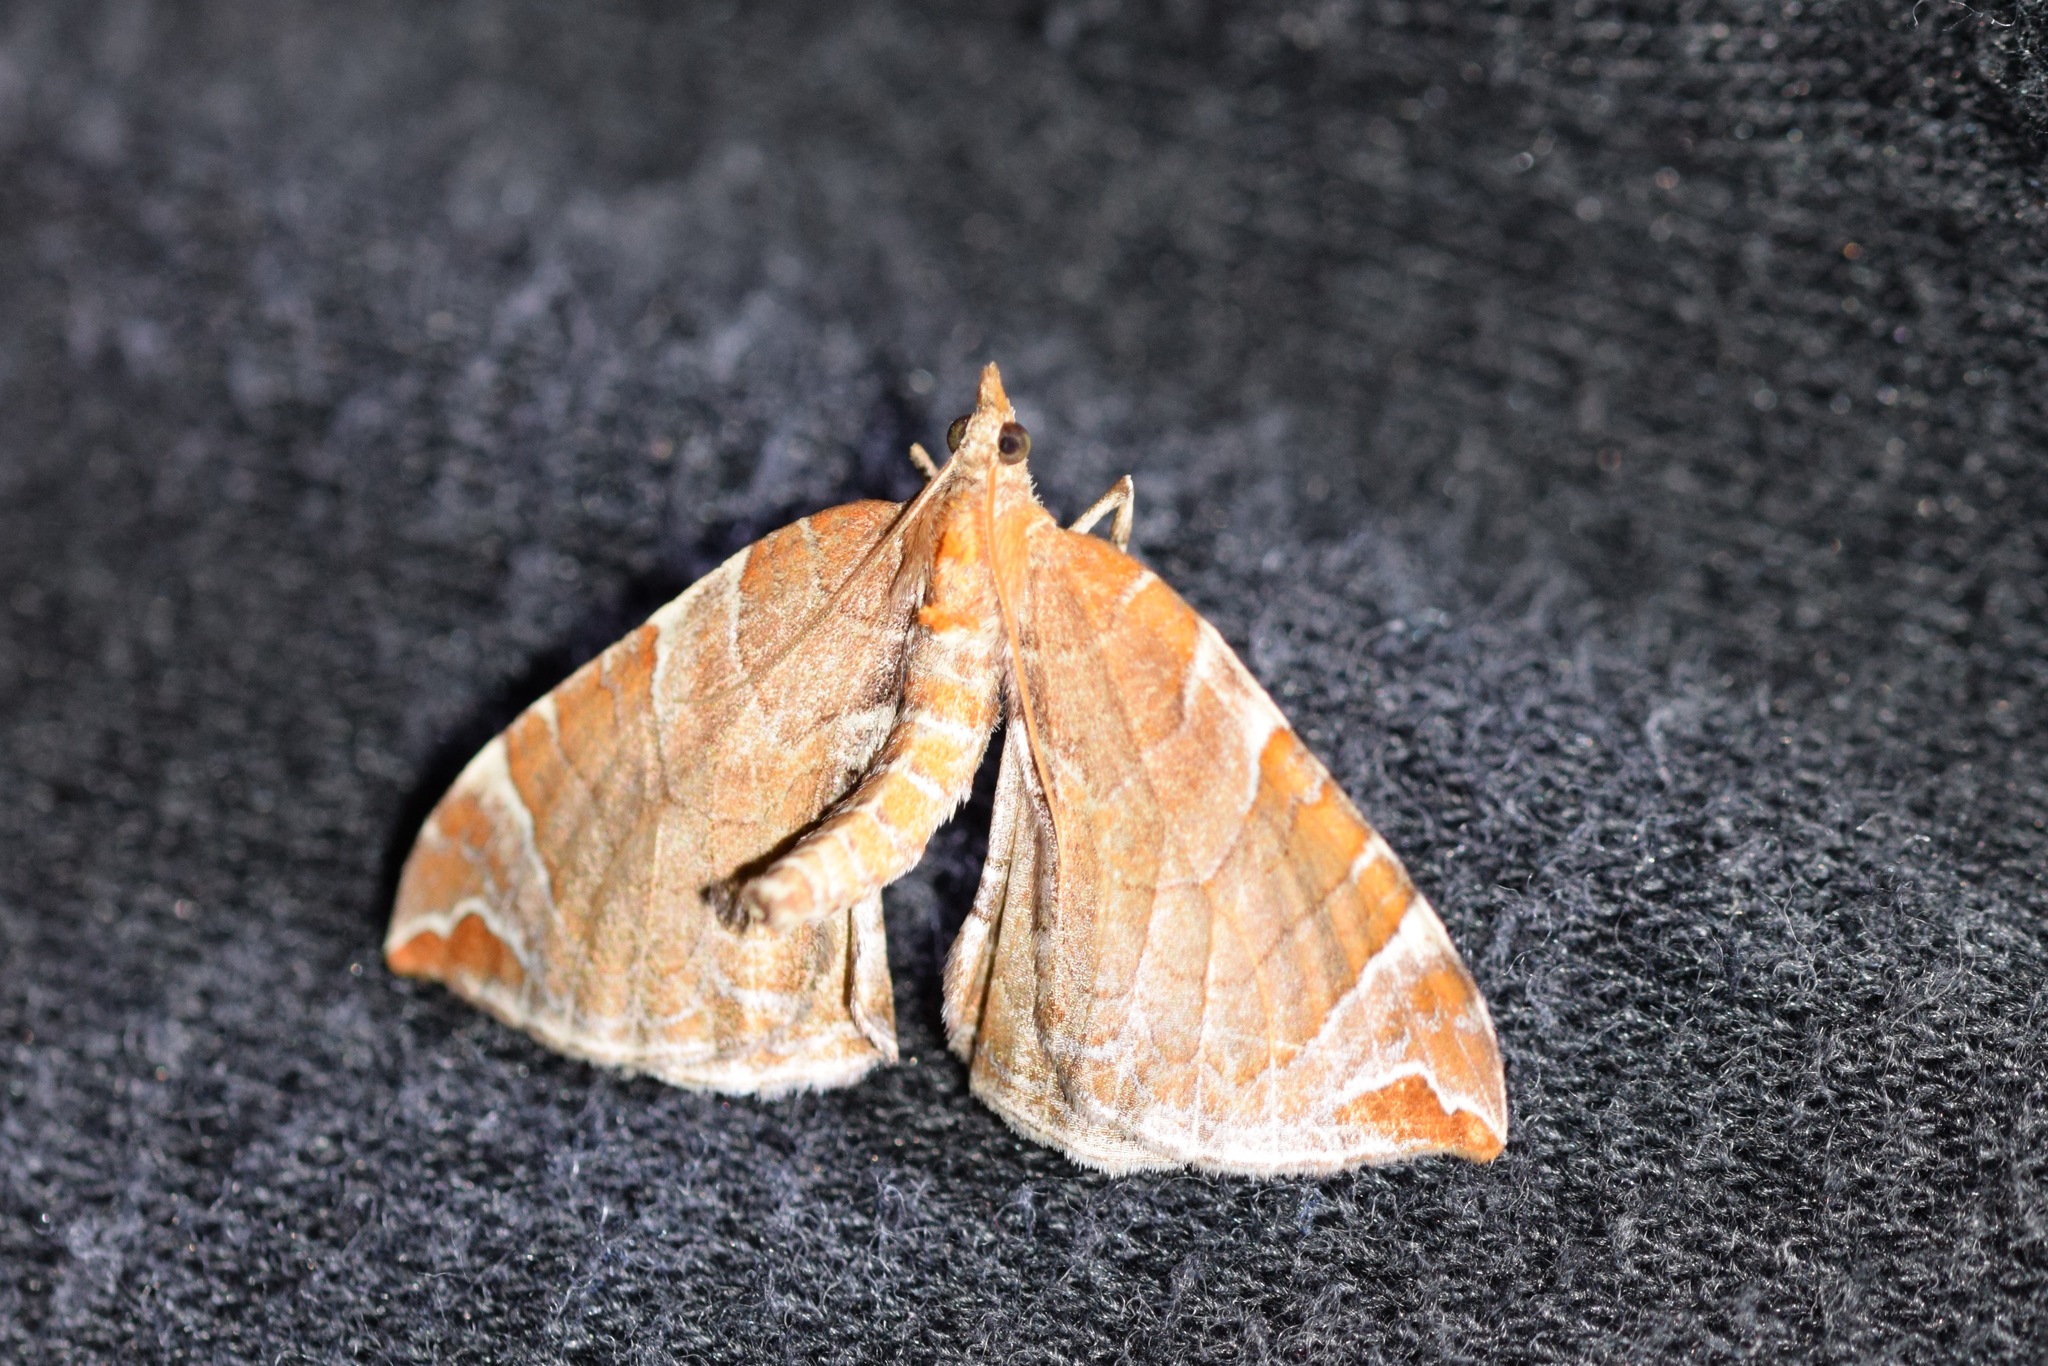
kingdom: Animalia
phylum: Arthropoda
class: Insecta
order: Lepidoptera
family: Geometridae
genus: Eulithis
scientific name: Eulithis molliculata
